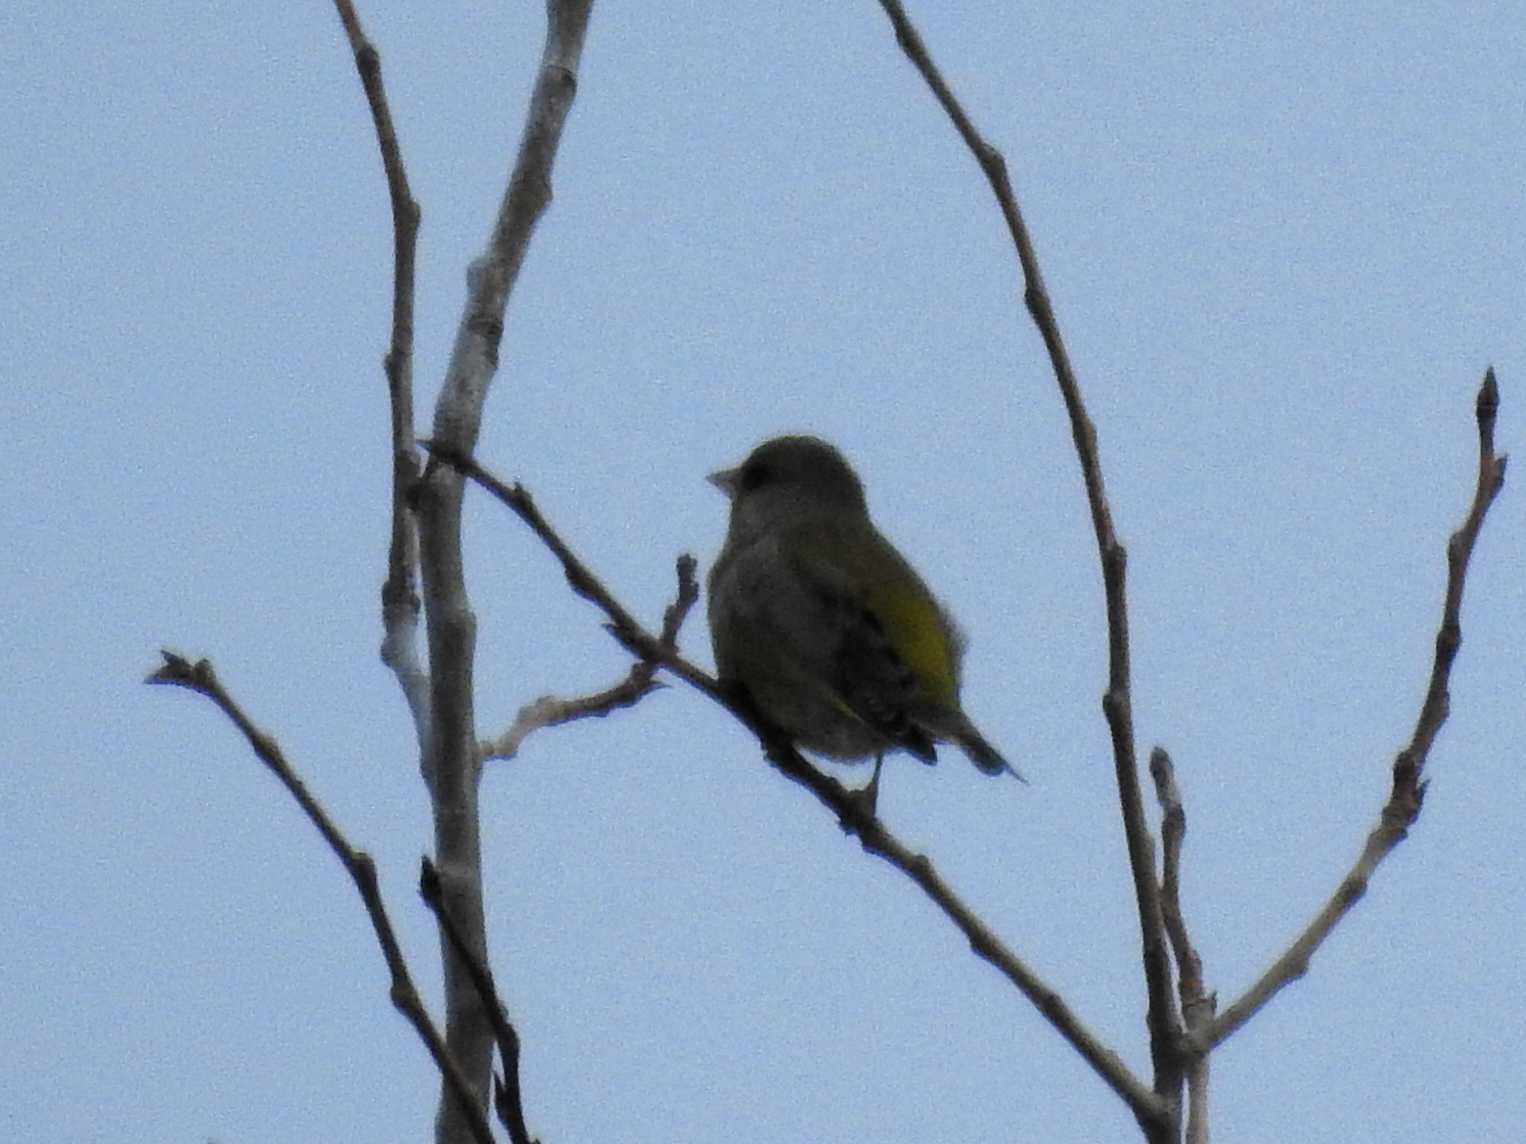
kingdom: Plantae
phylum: Tracheophyta
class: Liliopsida
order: Poales
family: Poaceae
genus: Chloris
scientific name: Chloris chloris
